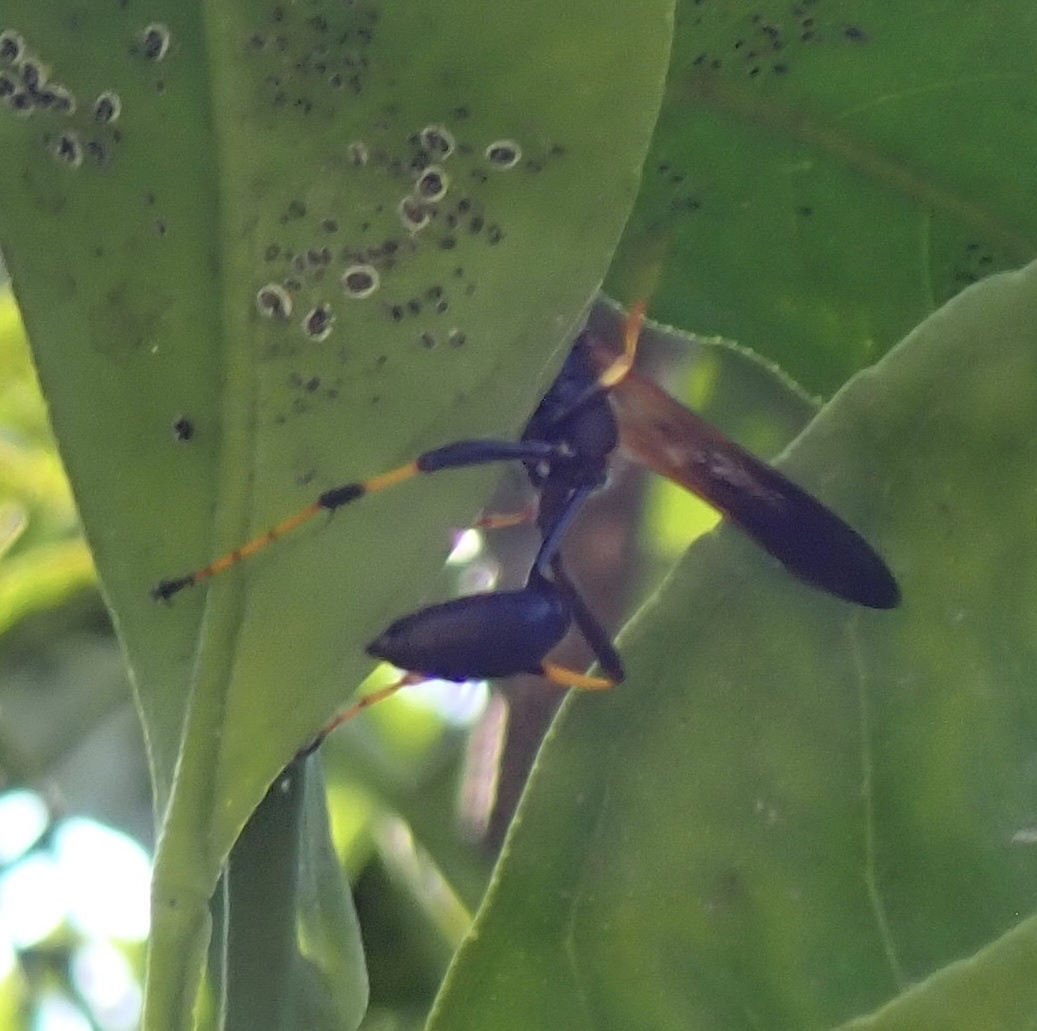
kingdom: Animalia
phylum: Arthropoda
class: Insecta
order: Hymenoptera
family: Sphecidae
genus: Sceliphron
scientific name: Sceliphron caementarium
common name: Mud dauber
